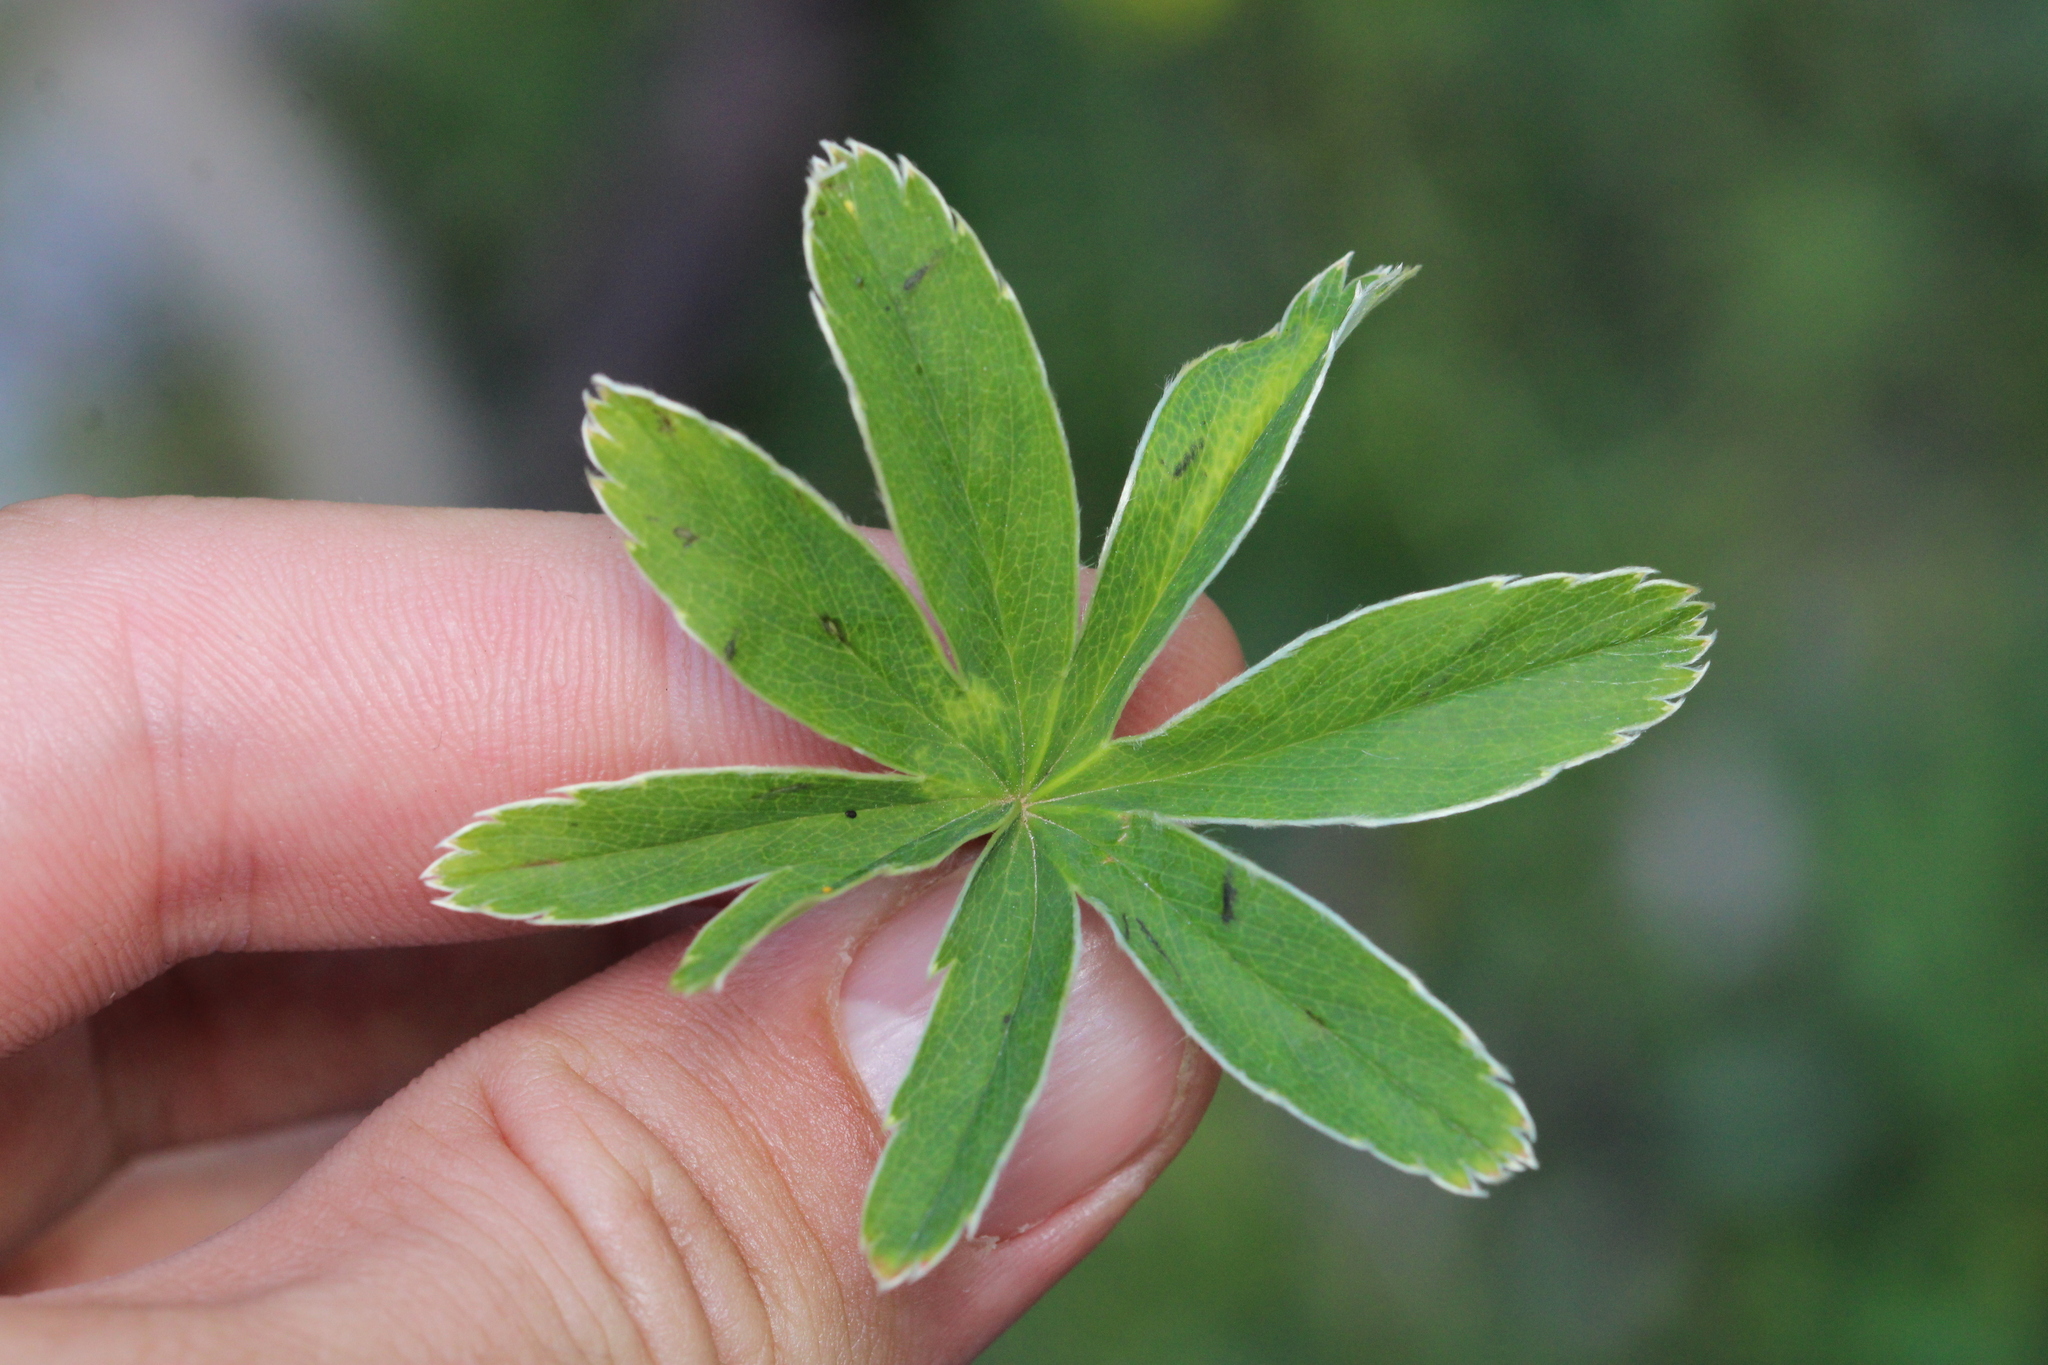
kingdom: Plantae
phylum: Tracheophyta
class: Magnoliopsida
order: Rosales
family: Rosaceae
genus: Alchemilla
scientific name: Alchemilla anisiaca
